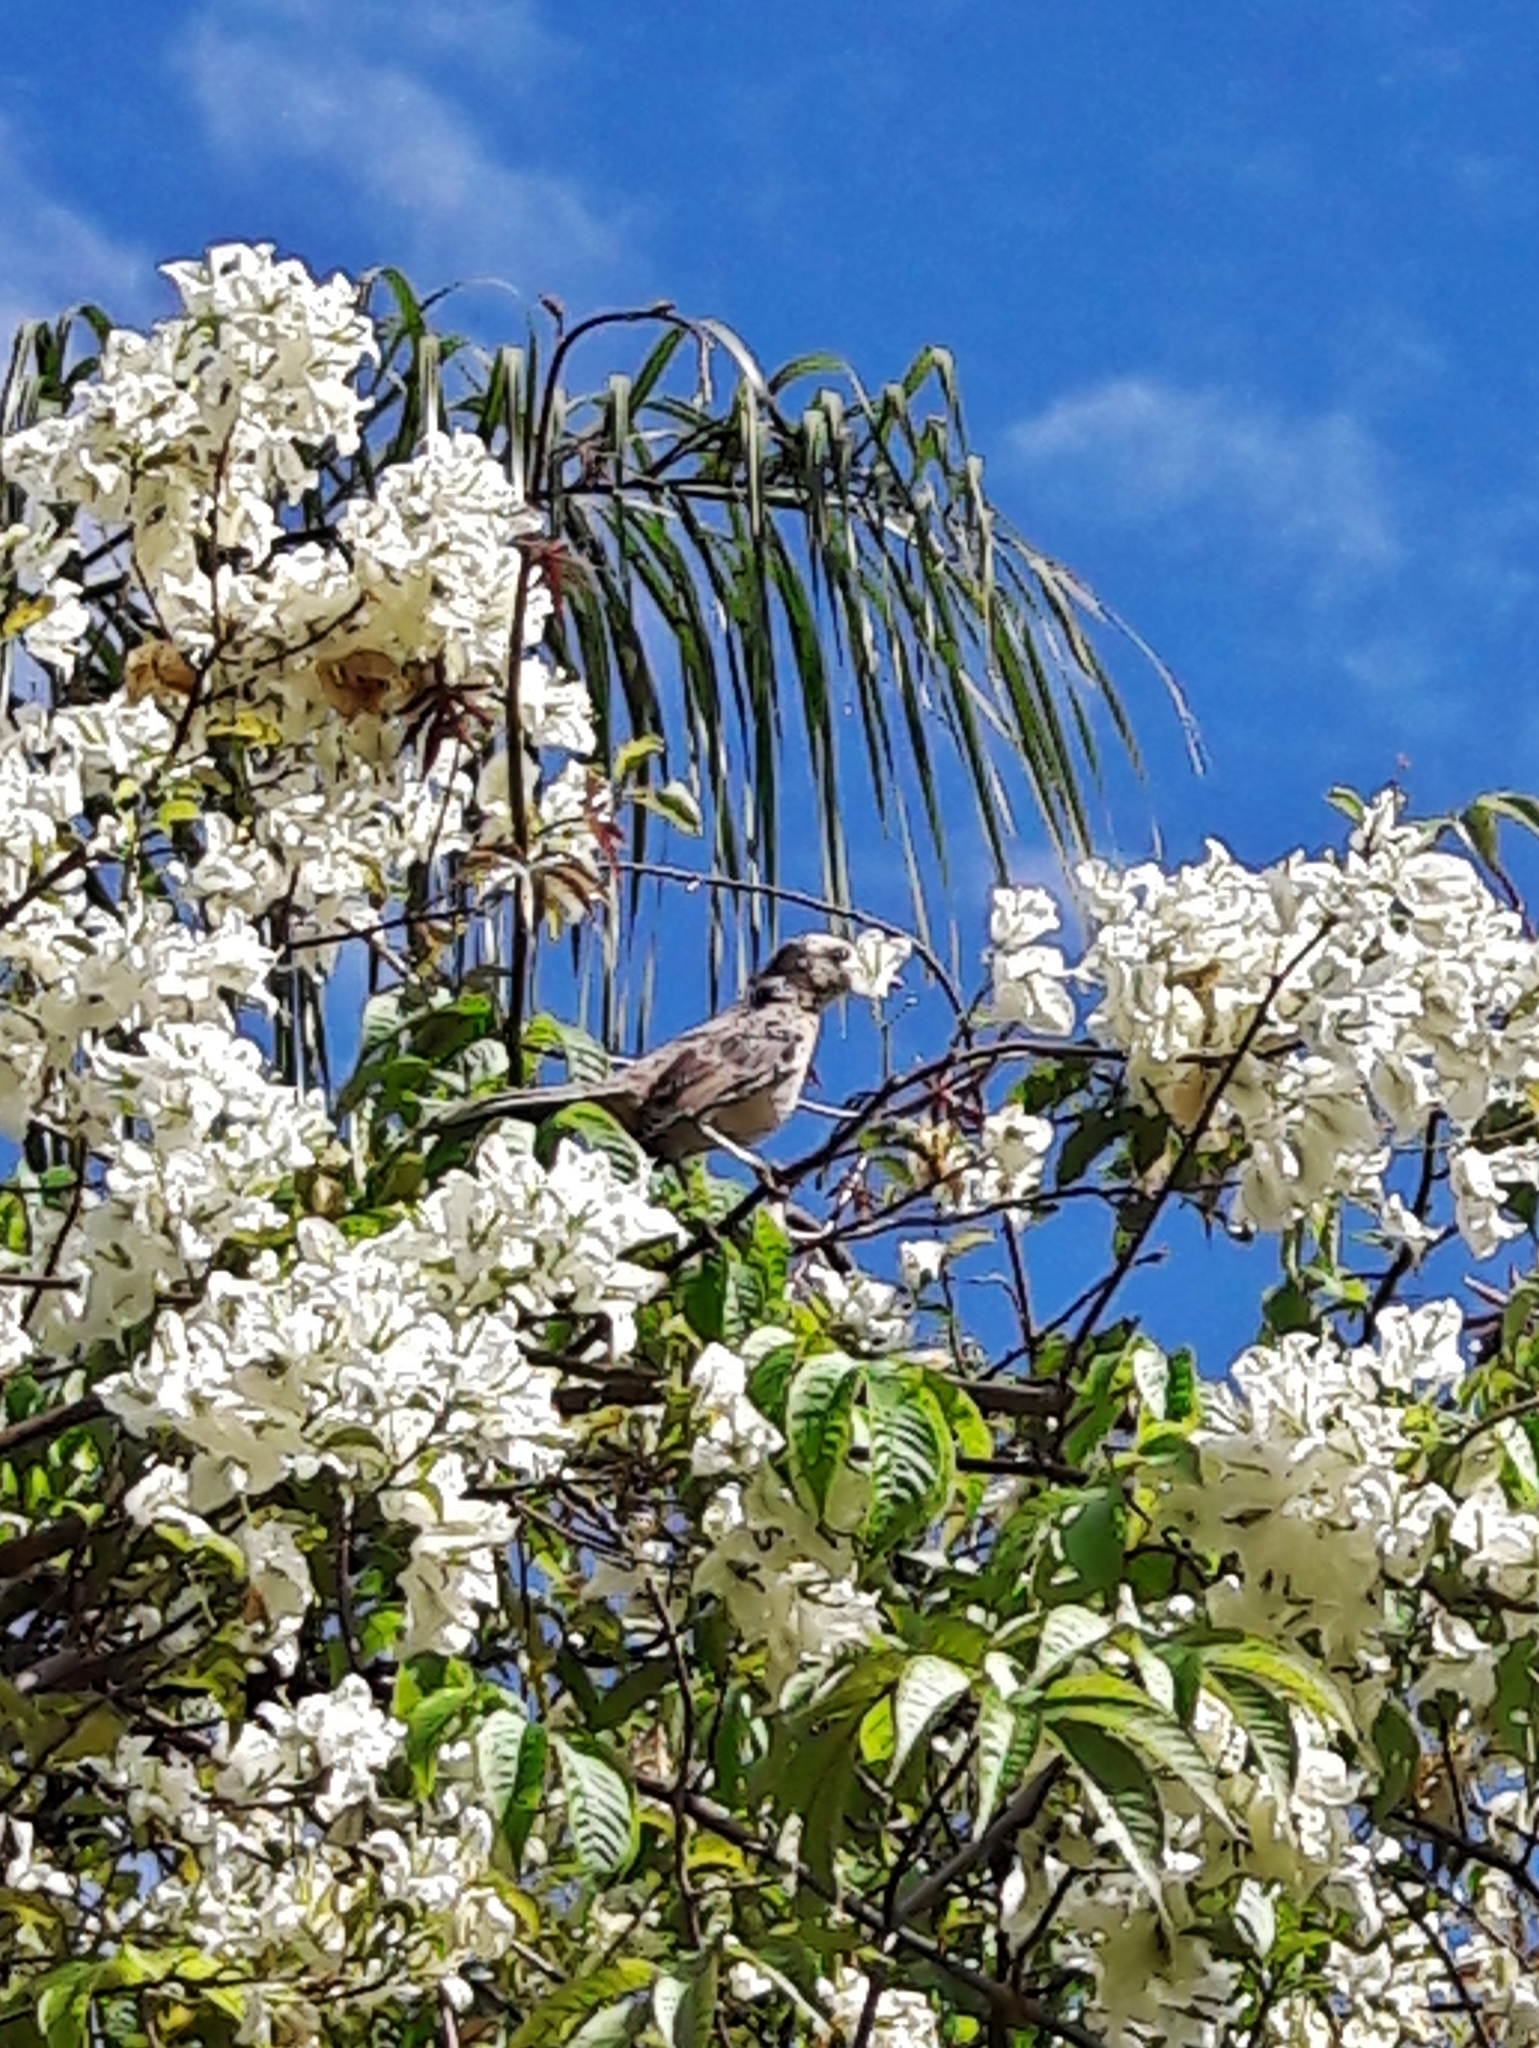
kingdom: Animalia
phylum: Chordata
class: Aves
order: Passeriformes
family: Mimidae
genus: Mimus
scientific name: Mimus saturninus
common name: Chalk-browed mockingbird
